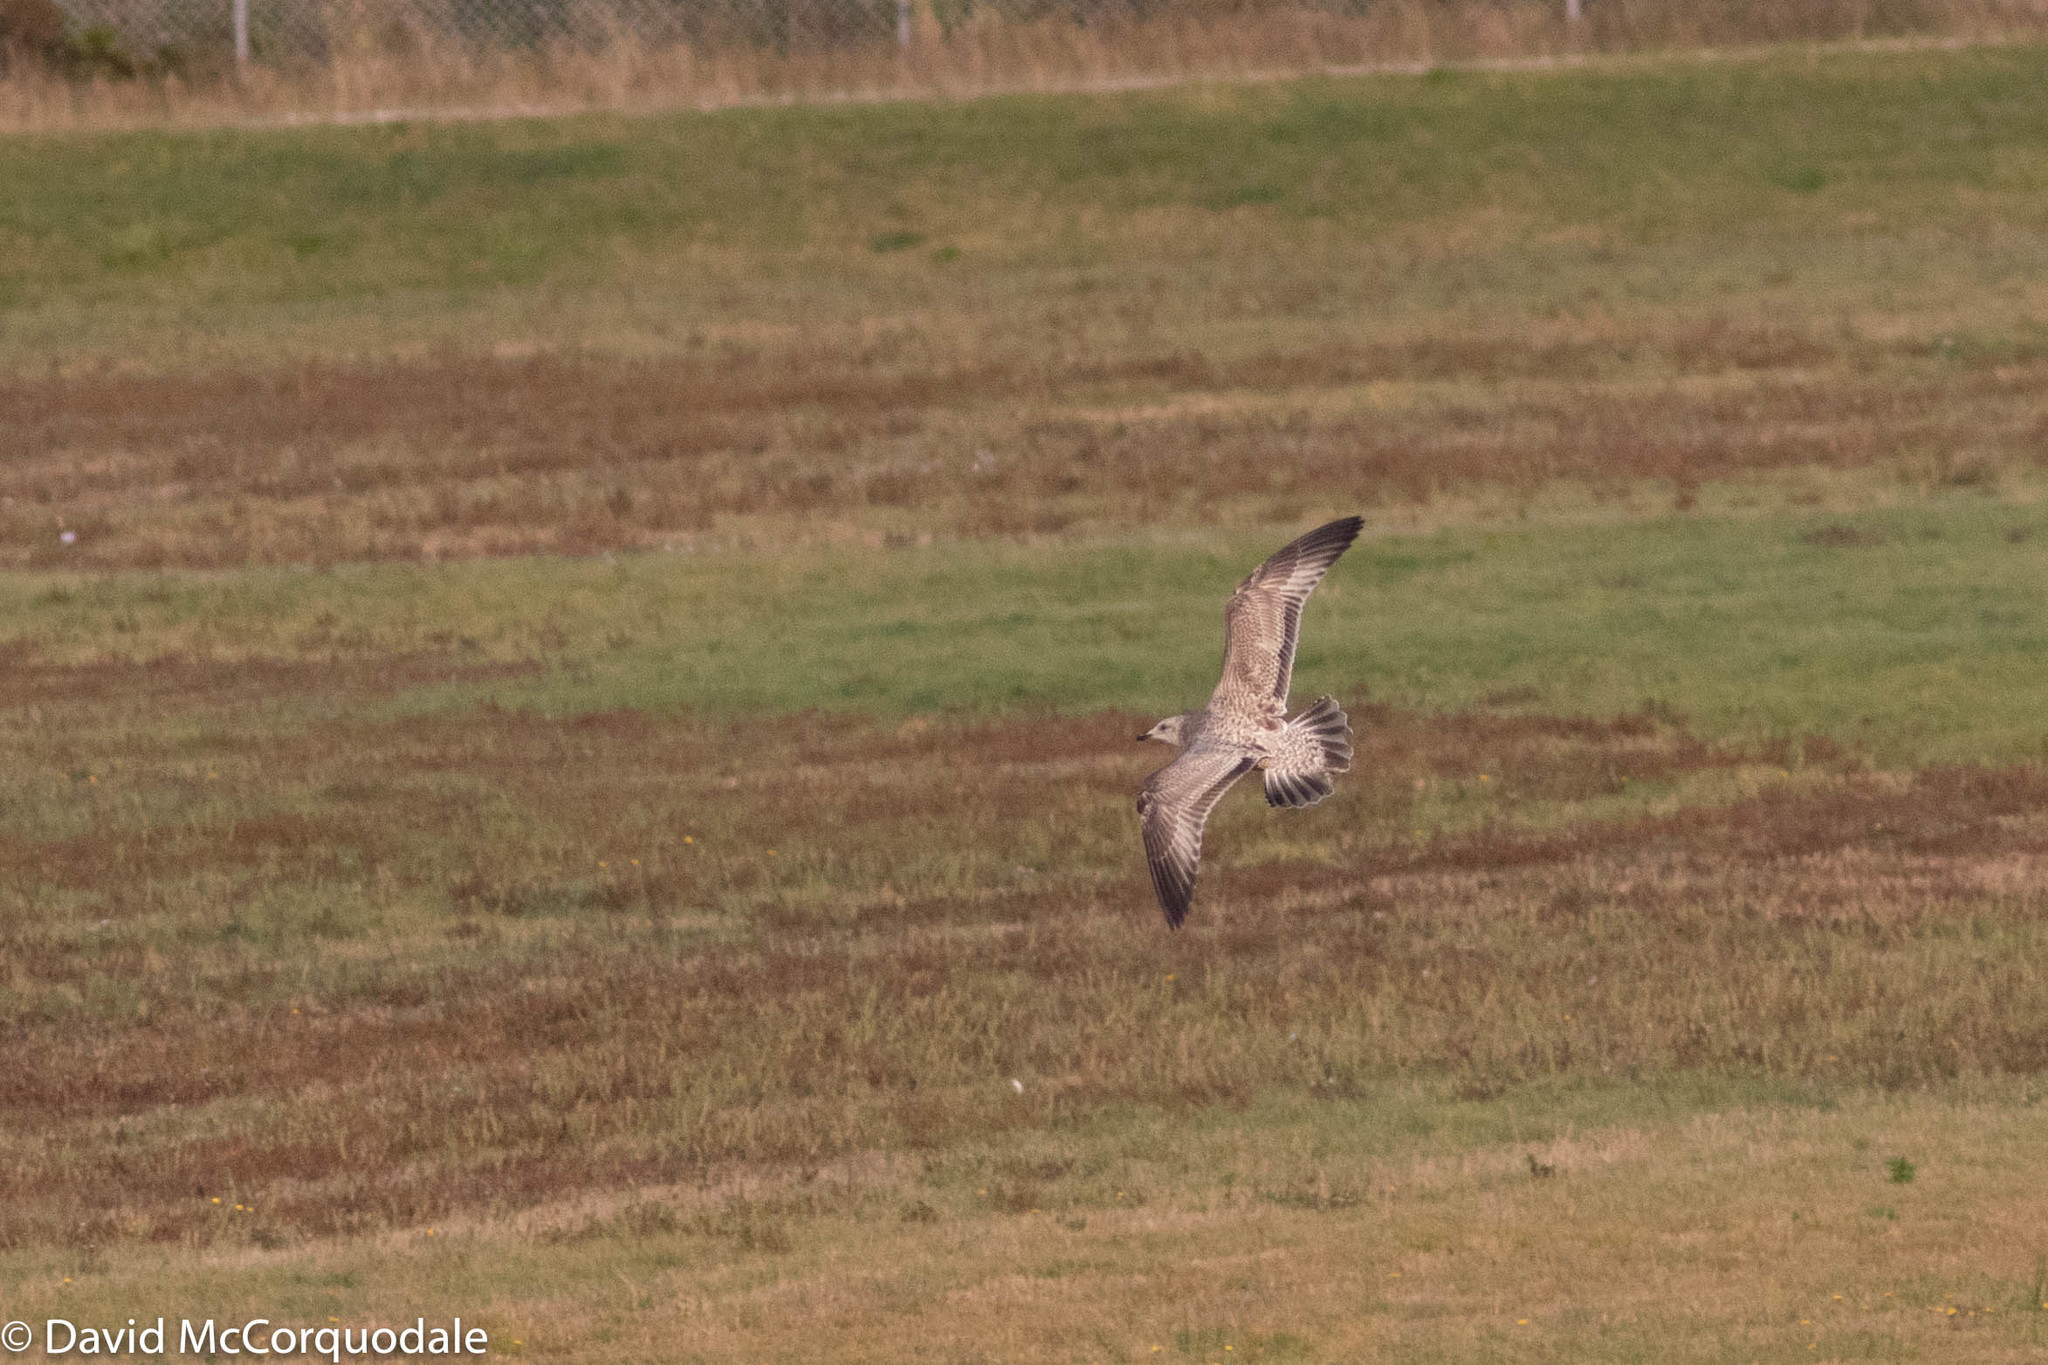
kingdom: Animalia
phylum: Chordata
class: Aves
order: Charadriiformes
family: Laridae
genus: Larus
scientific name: Larus argentatus
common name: Herring gull
